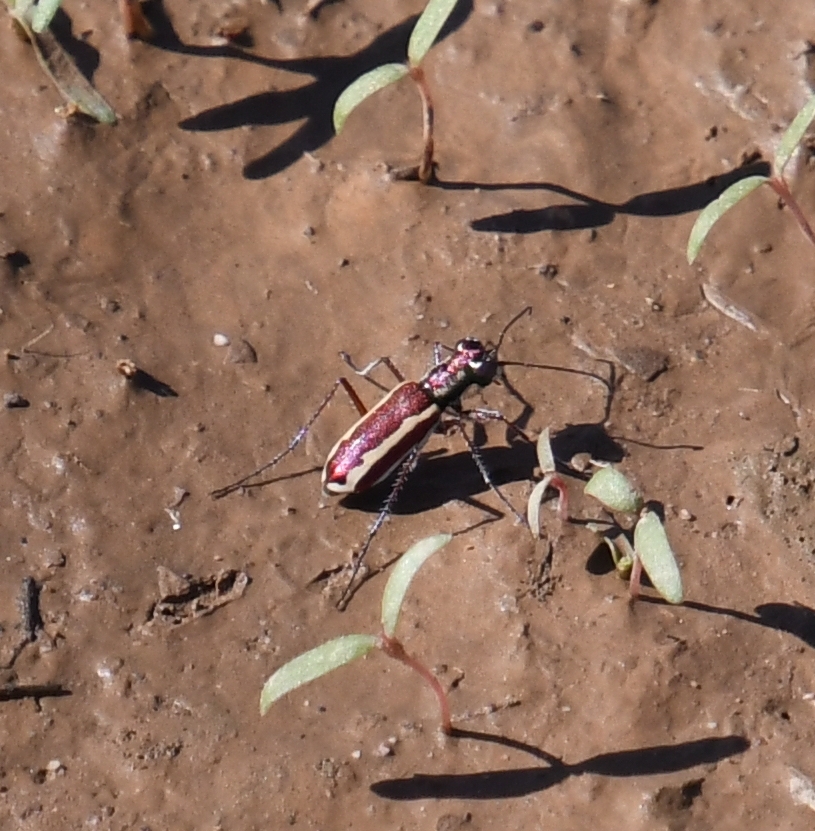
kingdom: Animalia
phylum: Arthropoda
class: Insecta
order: Coleoptera
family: Carabidae
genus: Cylindera
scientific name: Cylindera lemniscata
